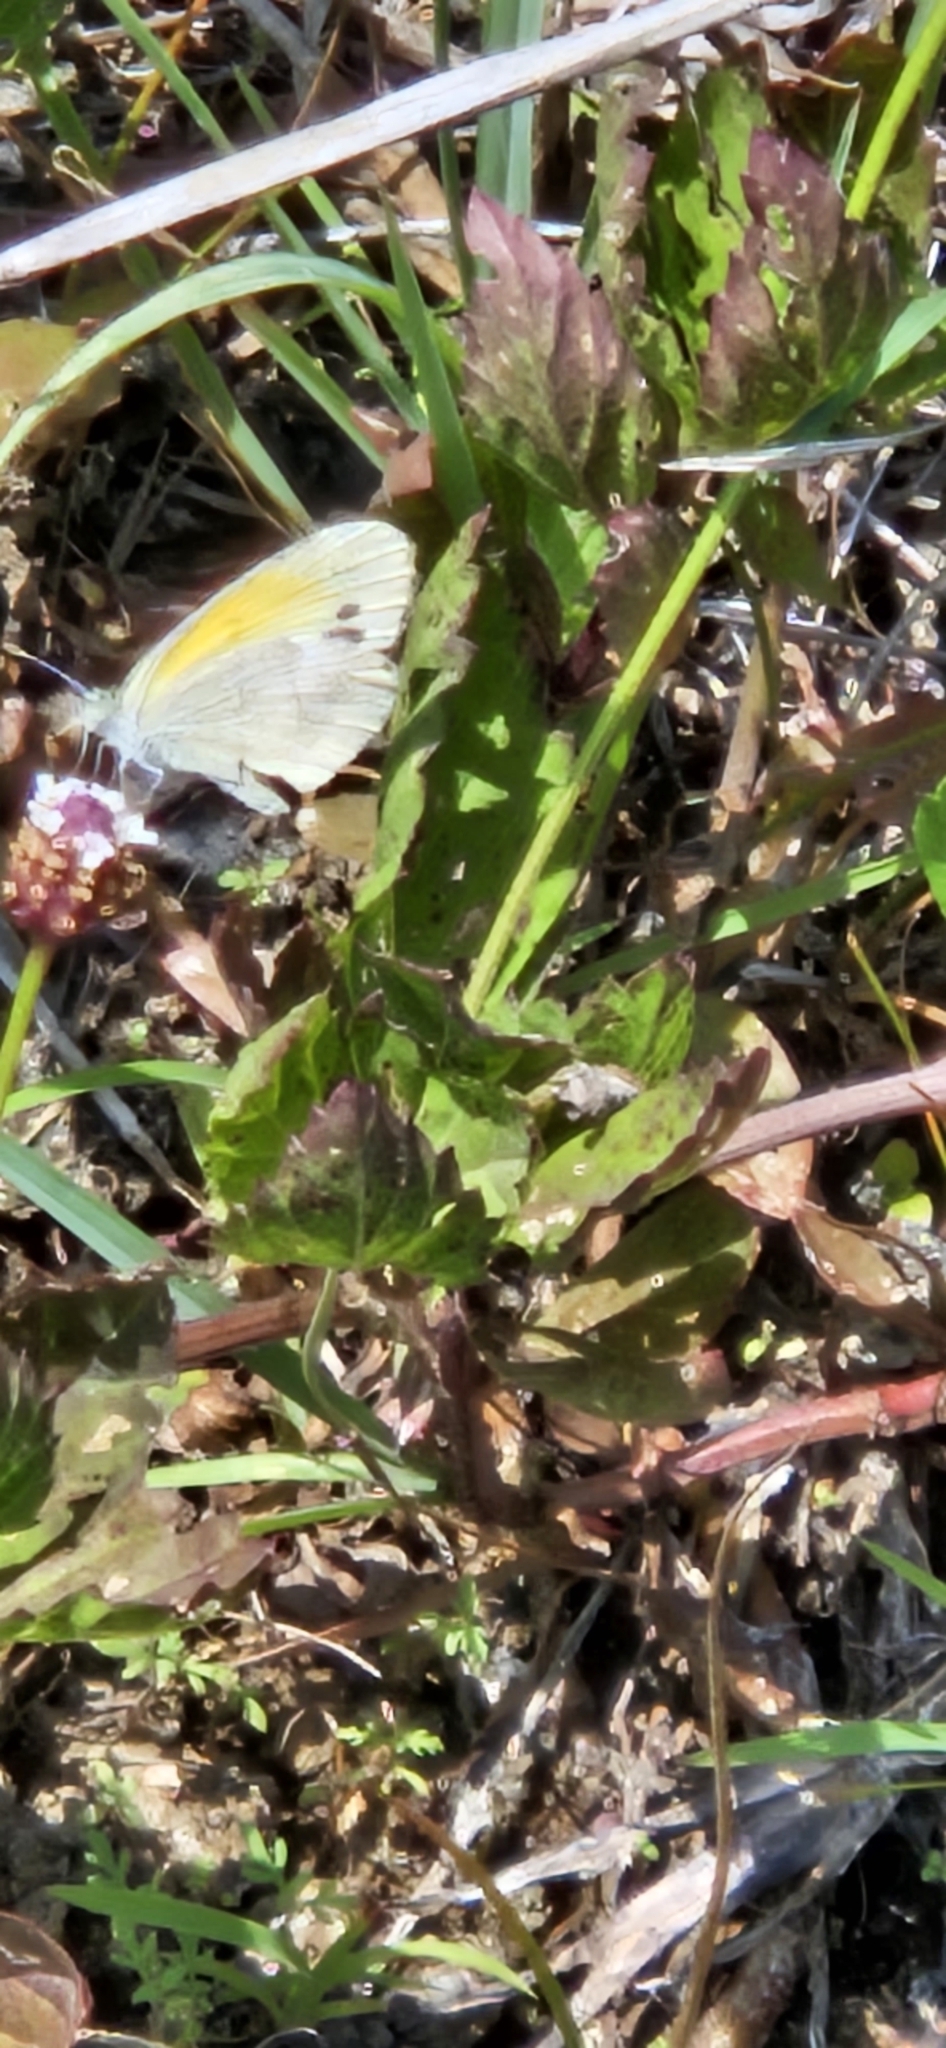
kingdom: Animalia
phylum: Arthropoda
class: Insecta
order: Lepidoptera
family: Pieridae
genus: Nathalis
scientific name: Nathalis iole
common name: Dainty sulphur
